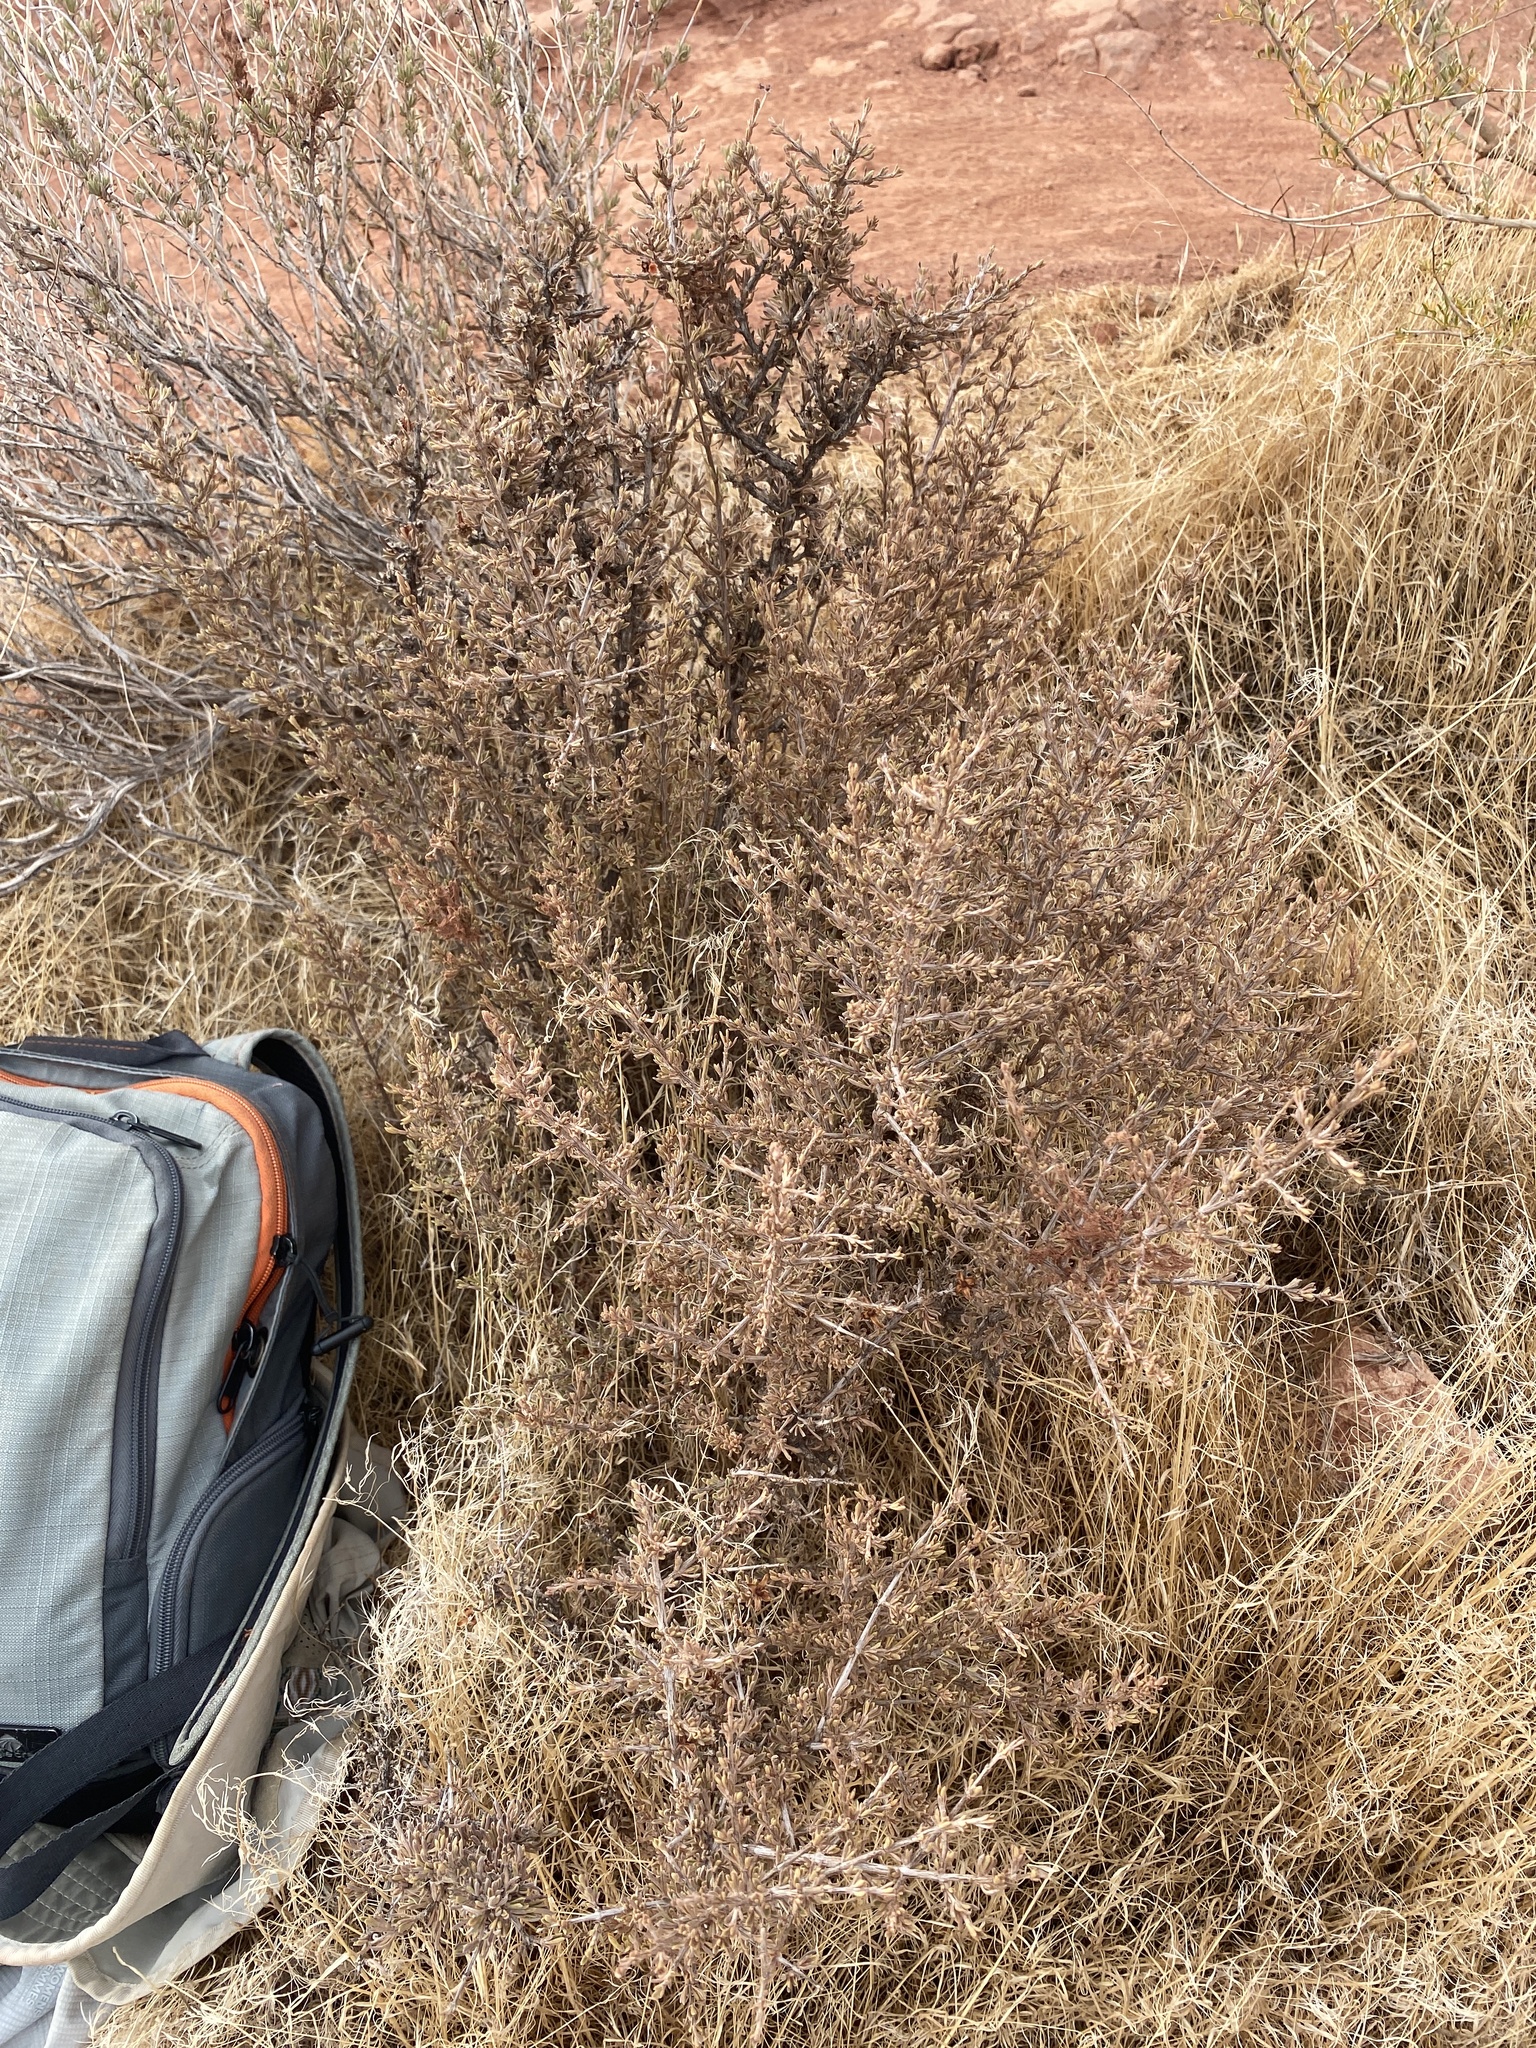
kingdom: Plantae
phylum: Tracheophyta
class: Magnoliopsida
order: Rosales
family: Rosaceae
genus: Coleogyne
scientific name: Coleogyne ramosissima
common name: Blackbrush
